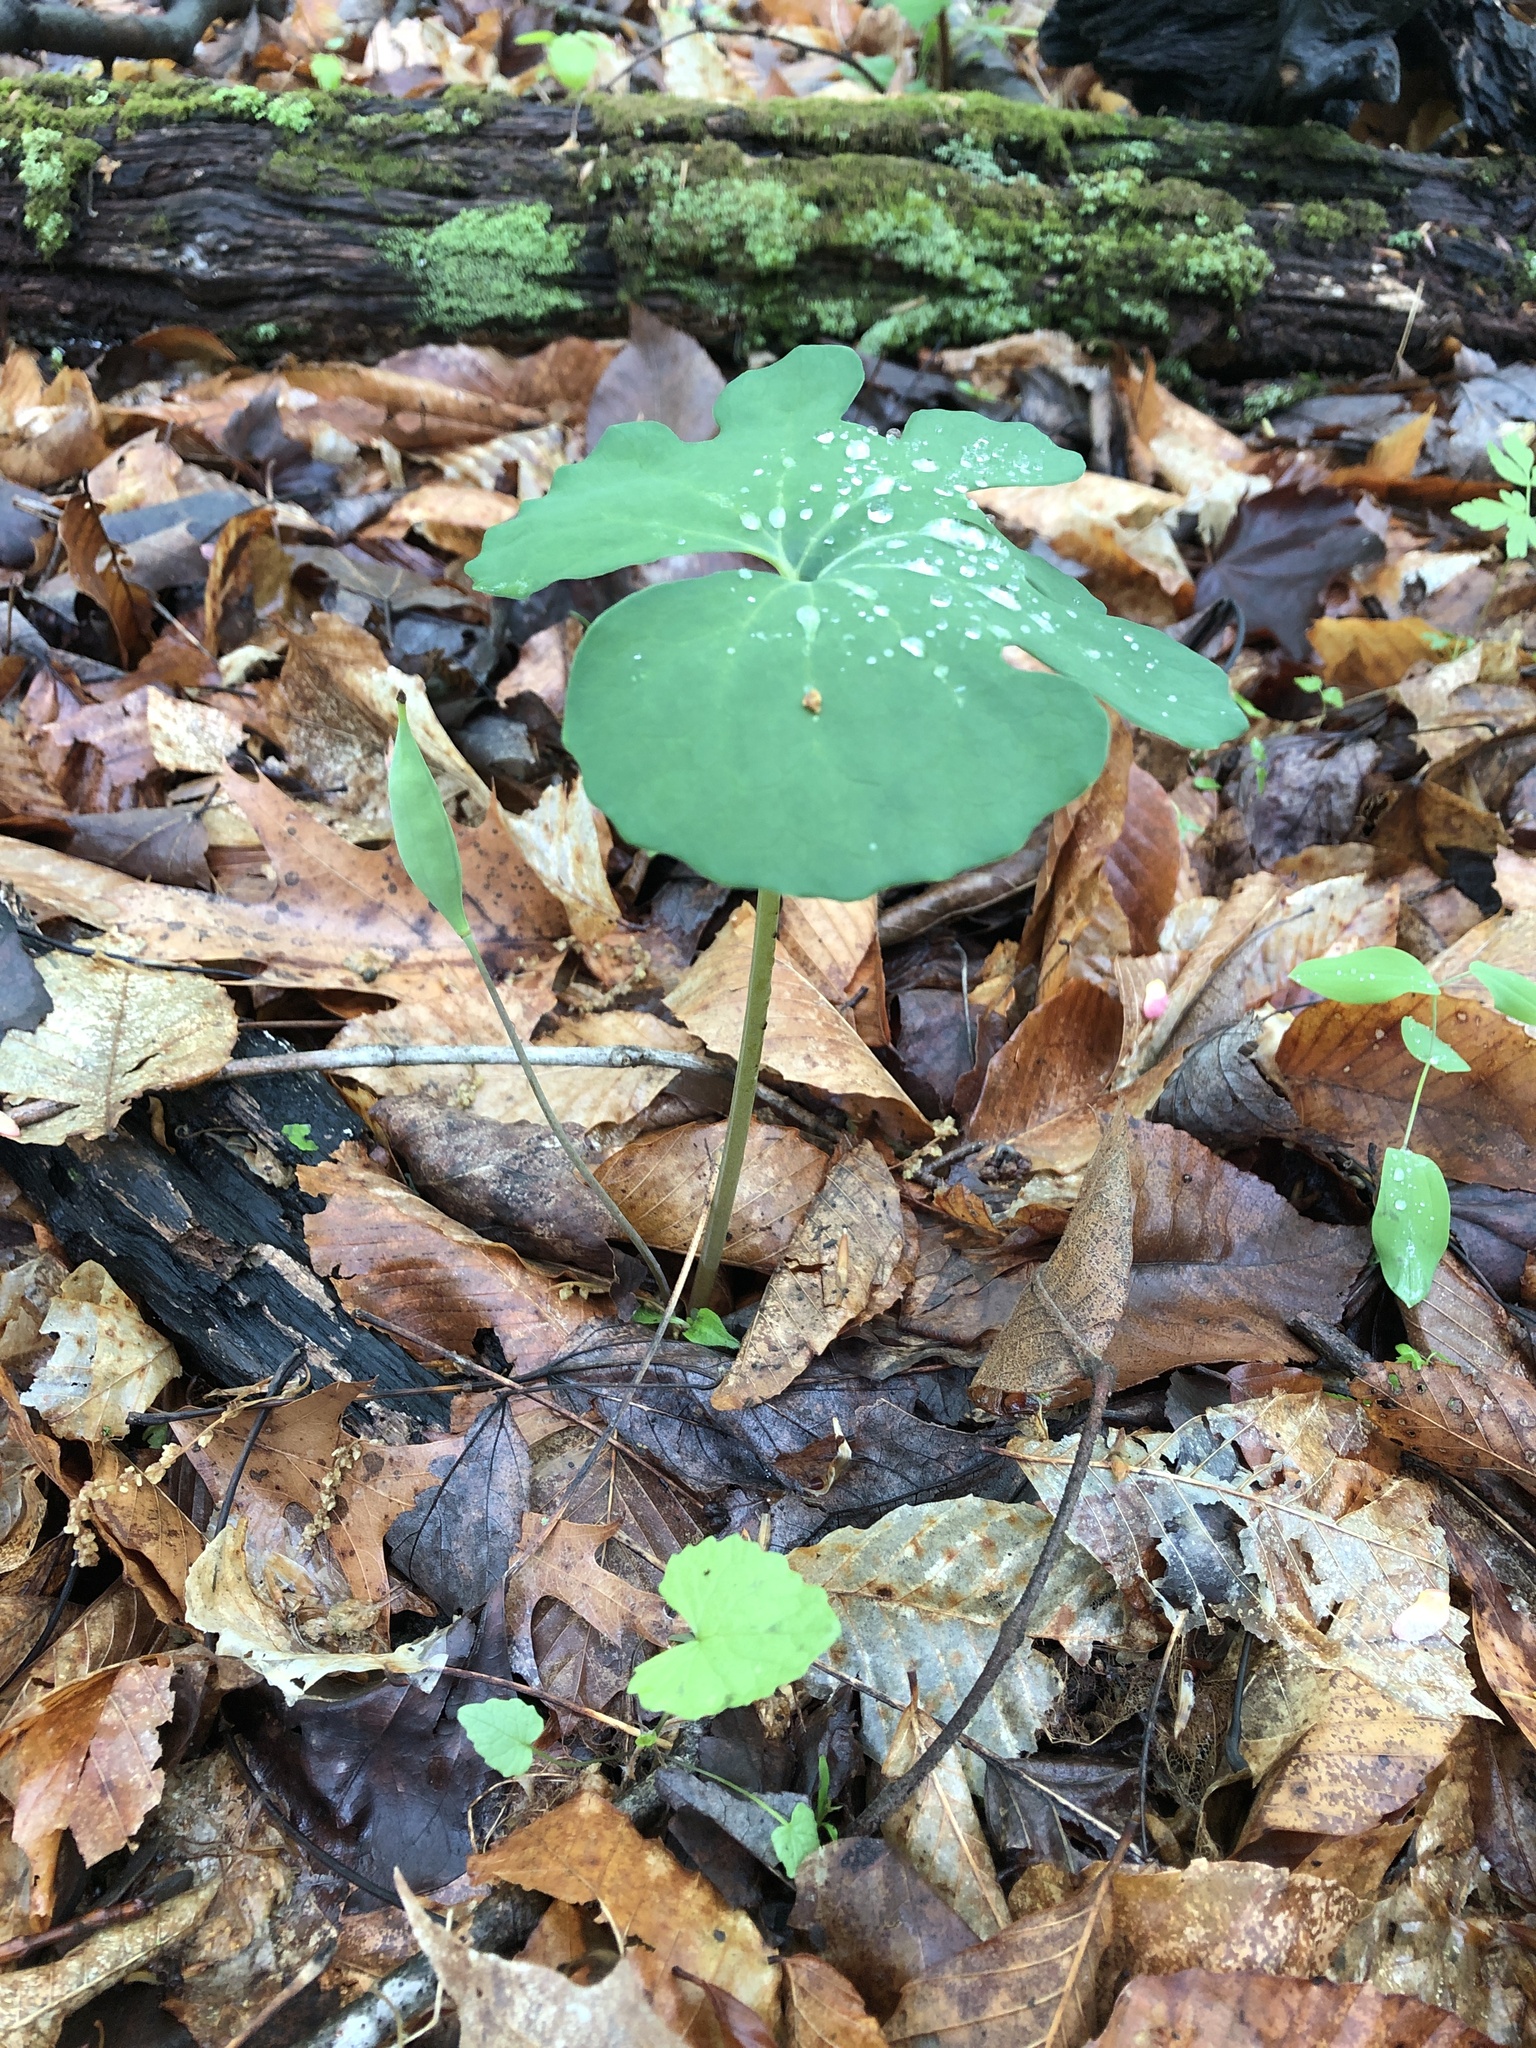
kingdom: Plantae
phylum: Tracheophyta
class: Magnoliopsida
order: Ranunculales
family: Papaveraceae
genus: Sanguinaria
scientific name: Sanguinaria canadensis
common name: Bloodroot
